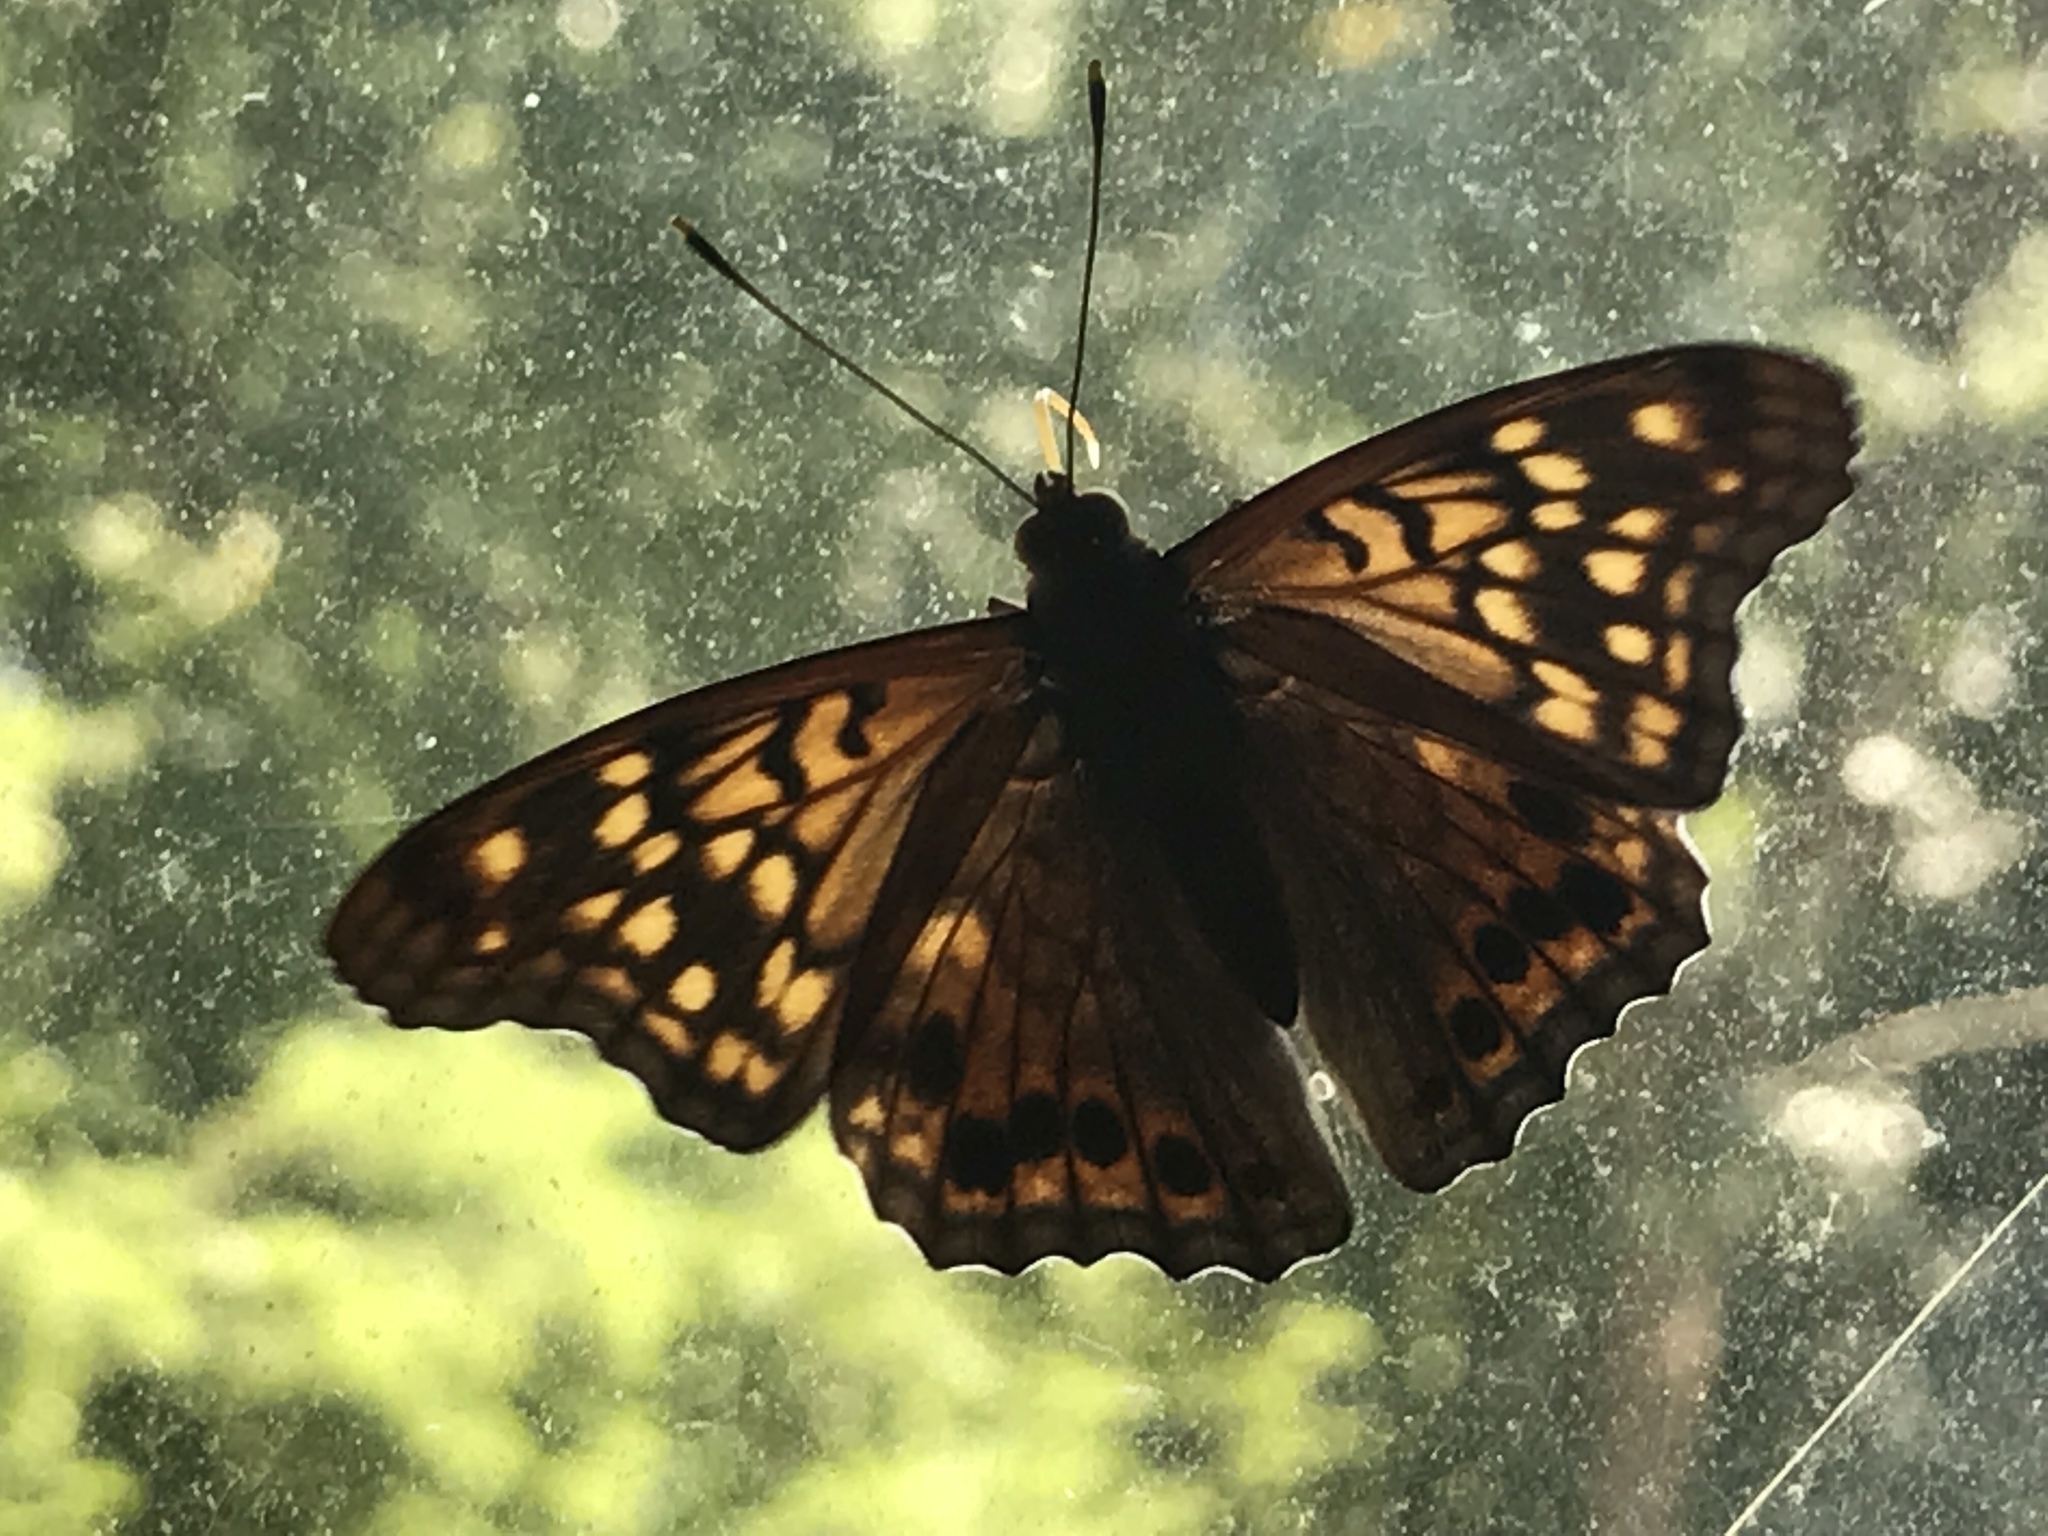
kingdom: Animalia
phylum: Arthropoda
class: Insecta
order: Lepidoptera
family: Nymphalidae
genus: Asterocampa
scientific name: Asterocampa clyton
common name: Tawny emperor
